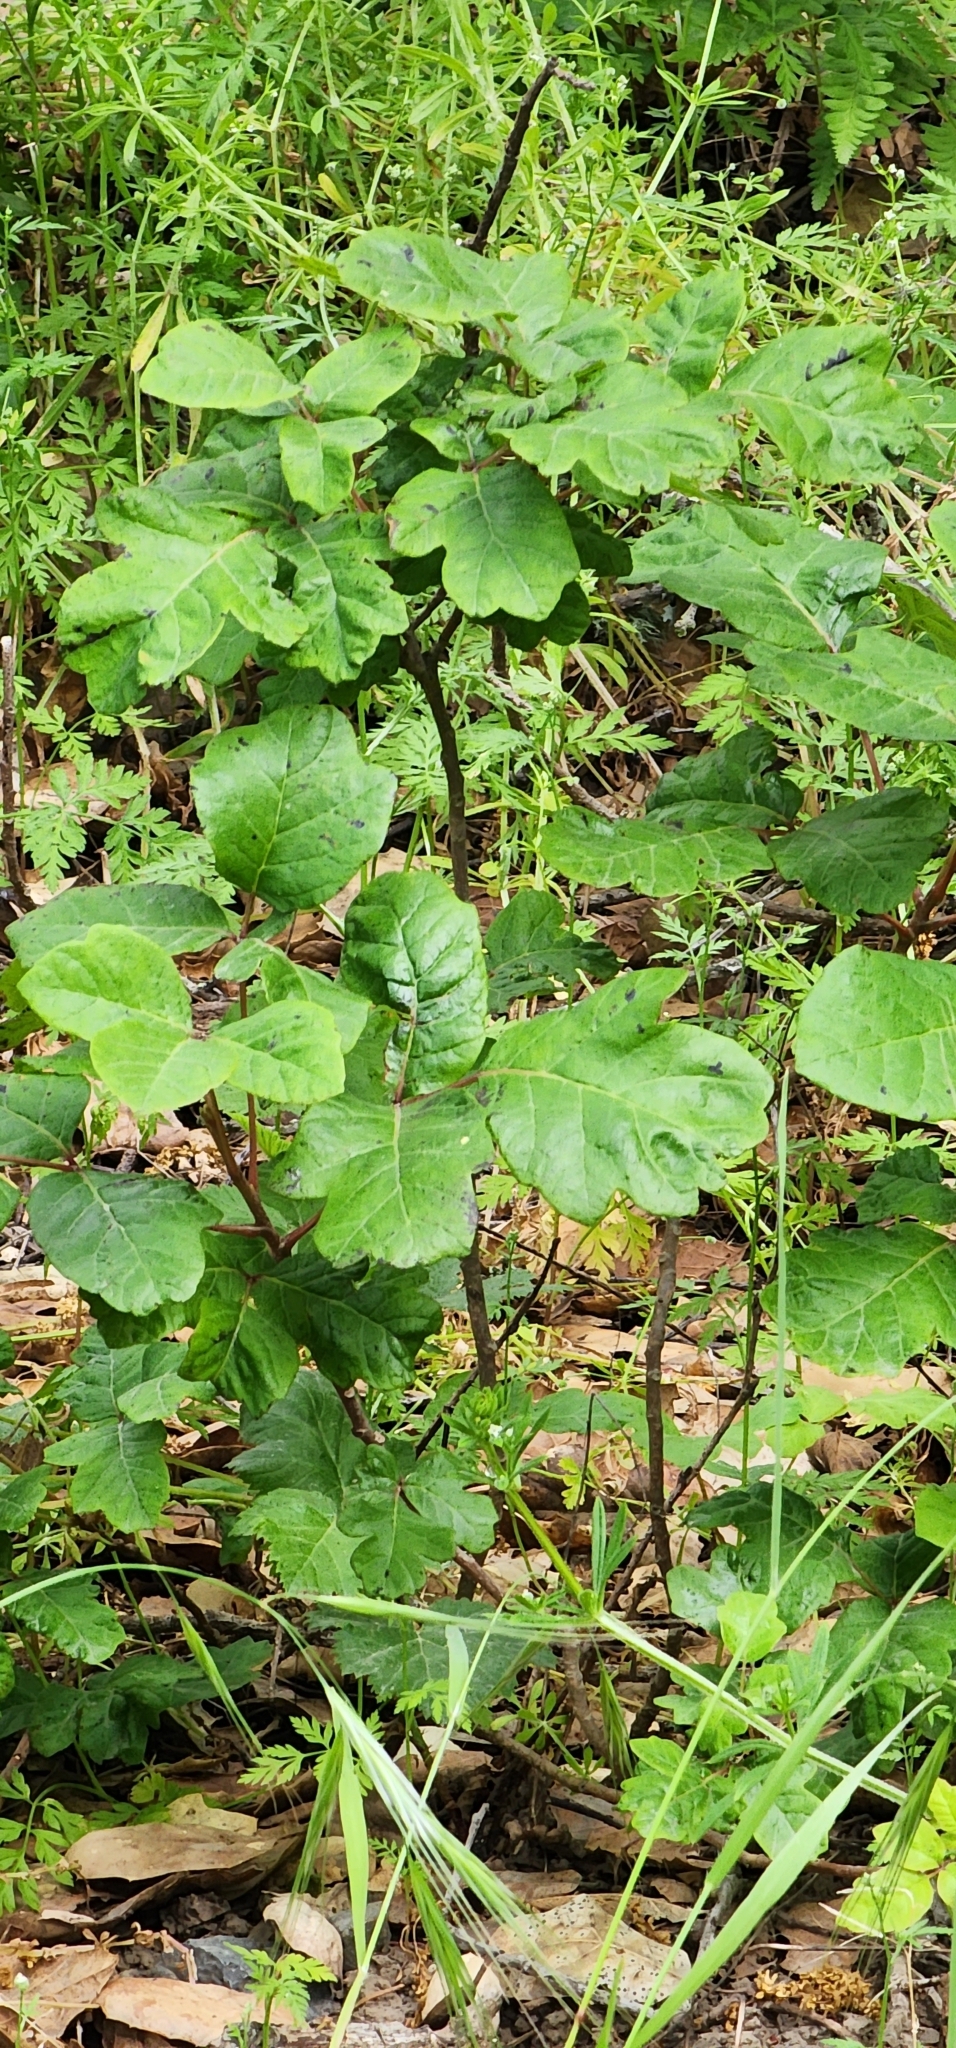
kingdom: Plantae
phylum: Tracheophyta
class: Magnoliopsida
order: Sapindales
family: Anacardiaceae
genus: Toxicodendron
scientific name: Toxicodendron diversilobum
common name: Pacific poison-oak
